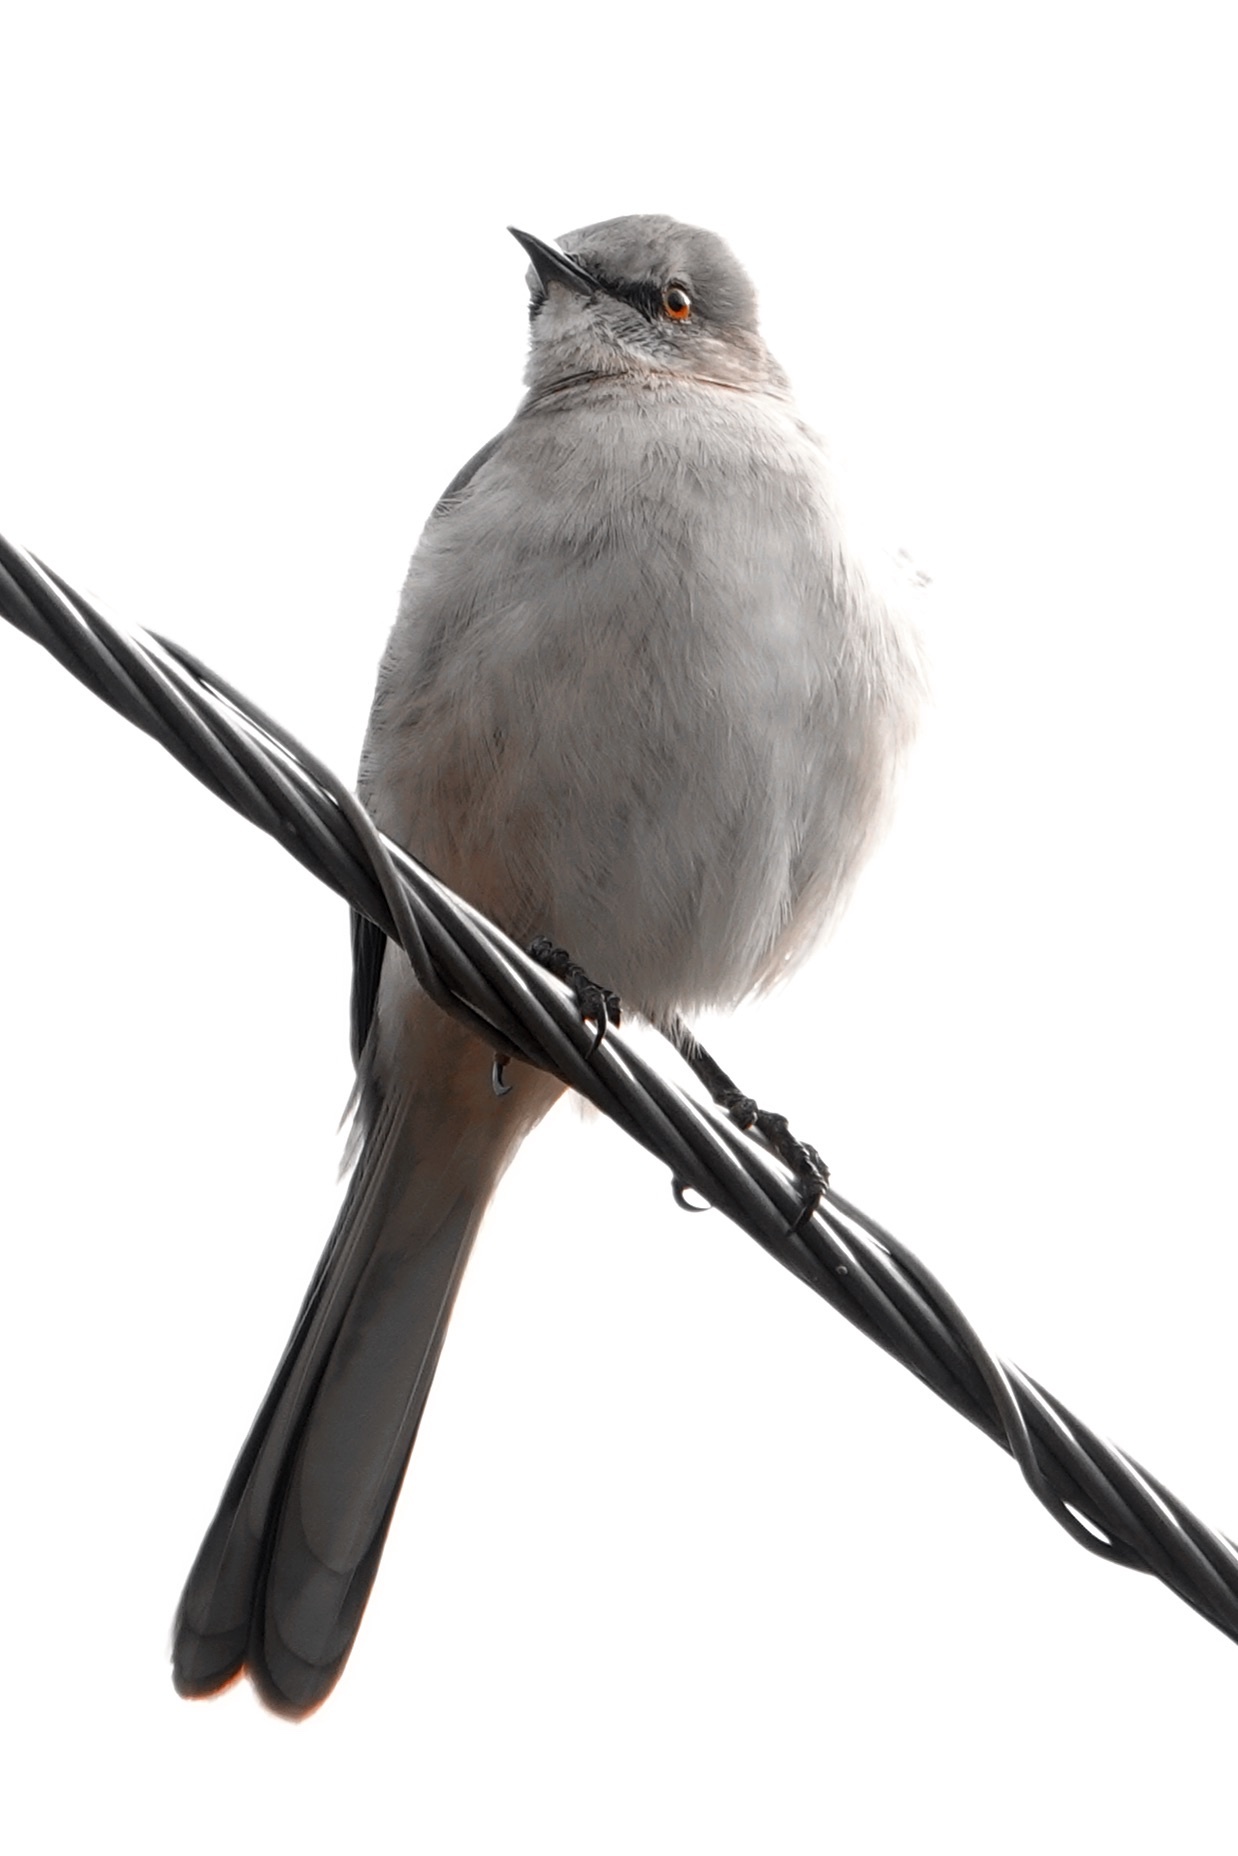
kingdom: Animalia
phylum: Chordata
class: Aves
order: Passeriformes
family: Mimidae
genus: Mimus
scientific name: Mimus polyglottos
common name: Northern mockingbird
